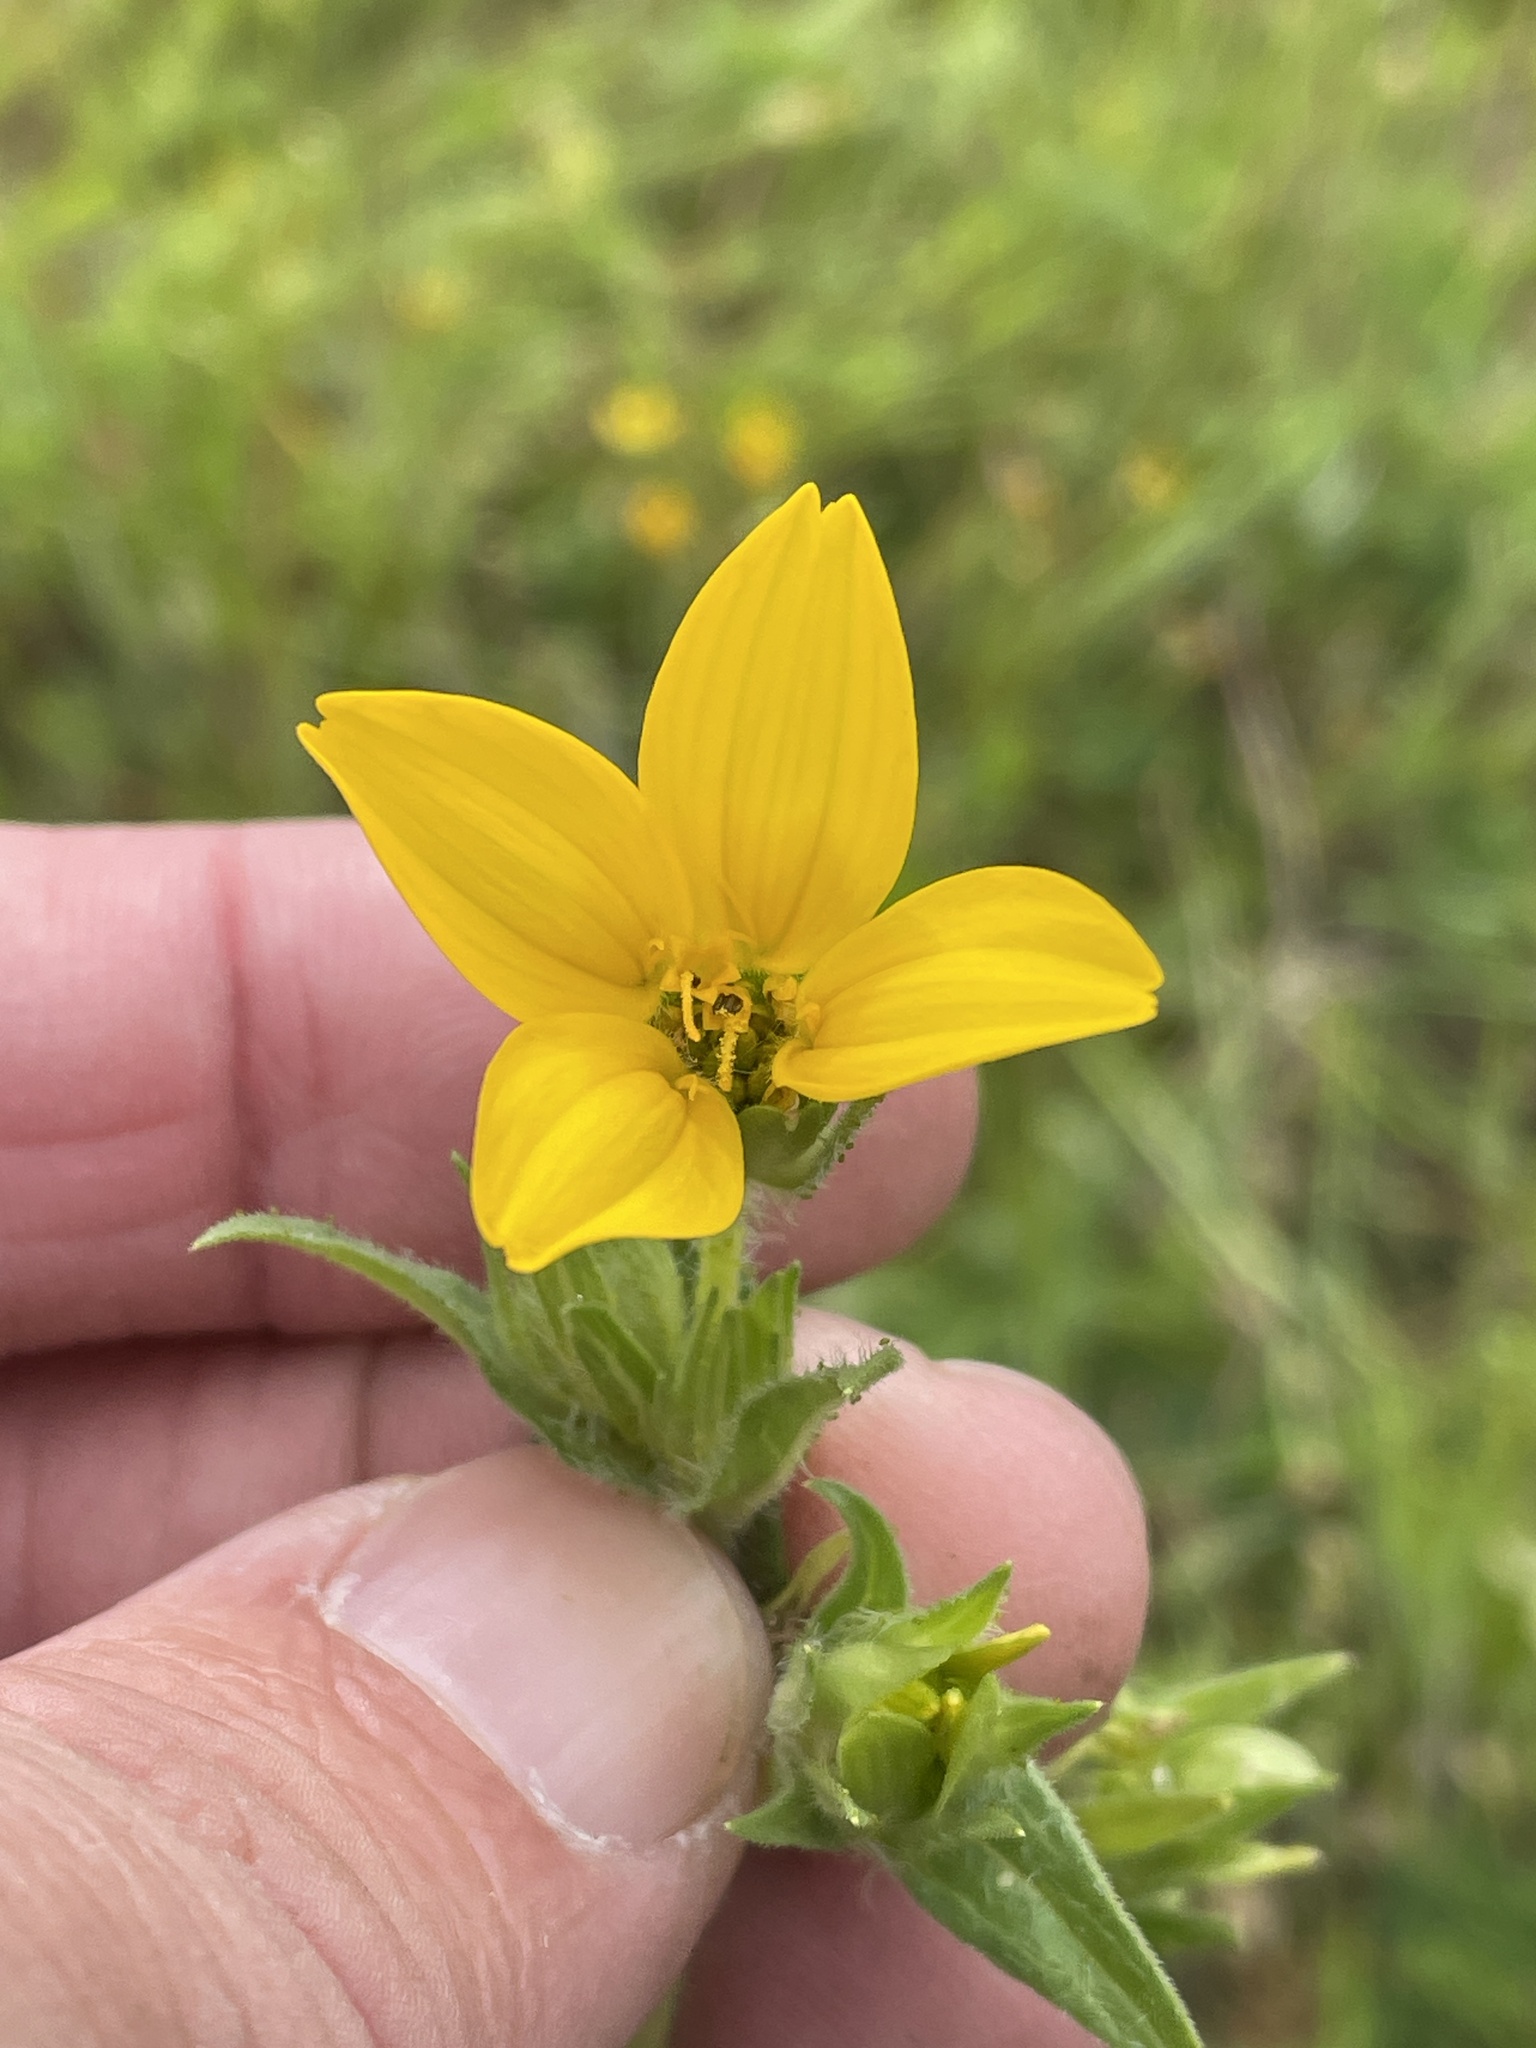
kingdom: Plantae
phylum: Tracheophyta
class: Magnoliopsida
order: Asterales
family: Asteraceae
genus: Lindheimera
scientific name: Lindheimera texana
